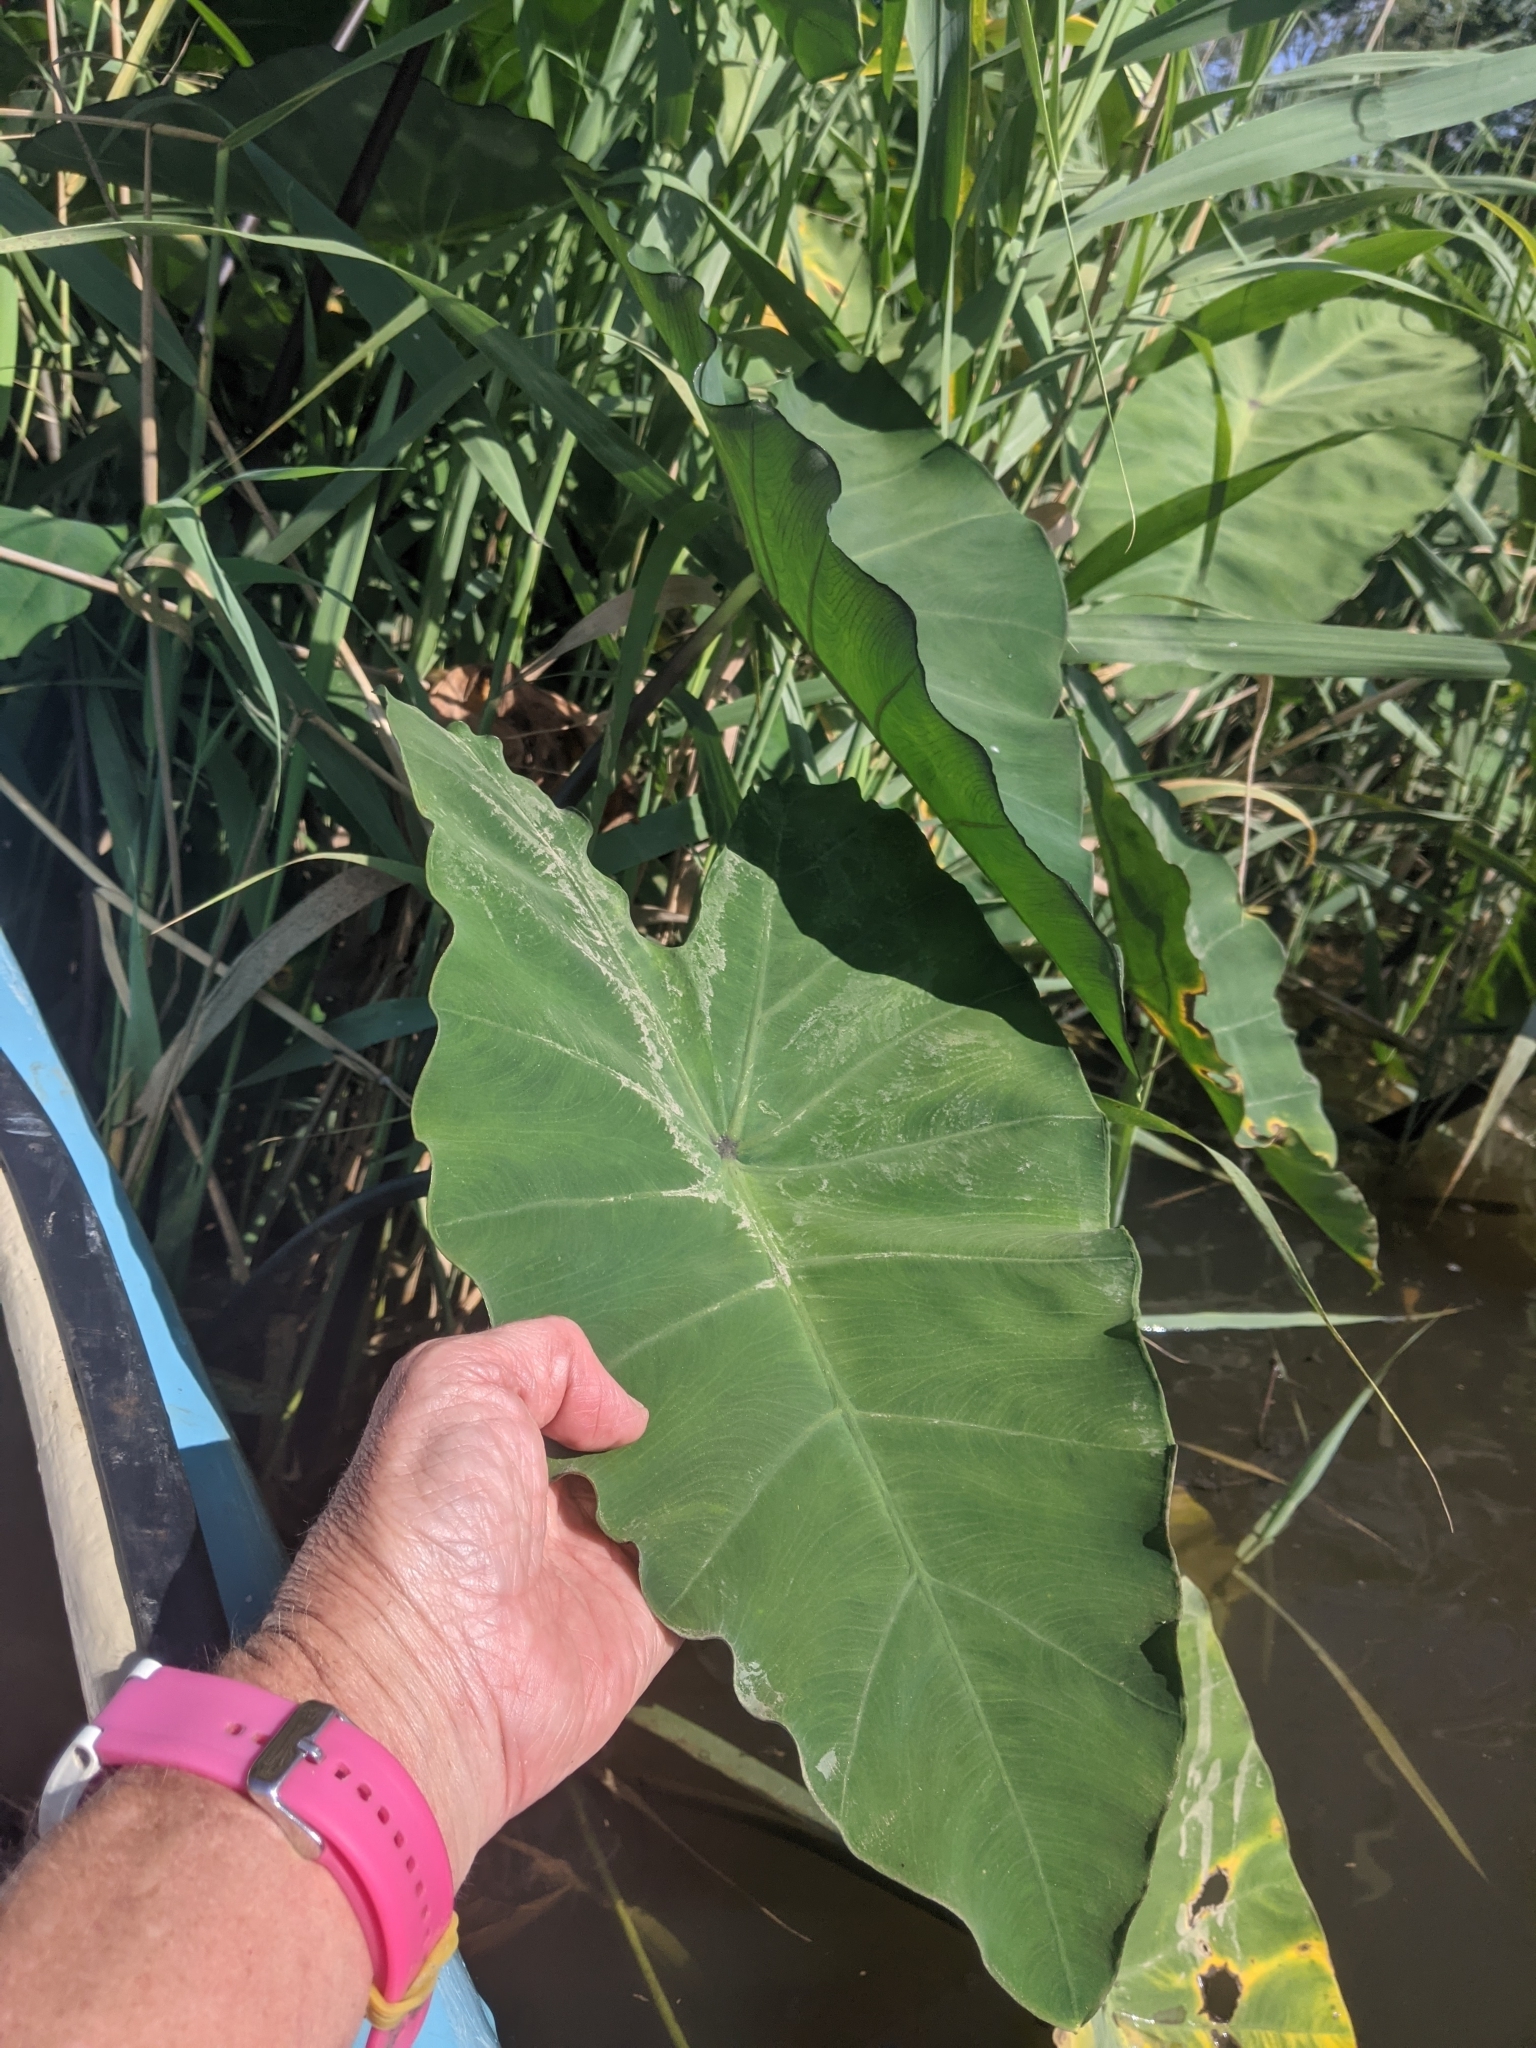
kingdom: Plantae
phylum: Tracheophyta
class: Liliopsida
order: Alismatales
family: Araceae
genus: Colocasia
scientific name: Colocasia esculenta
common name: Taro
